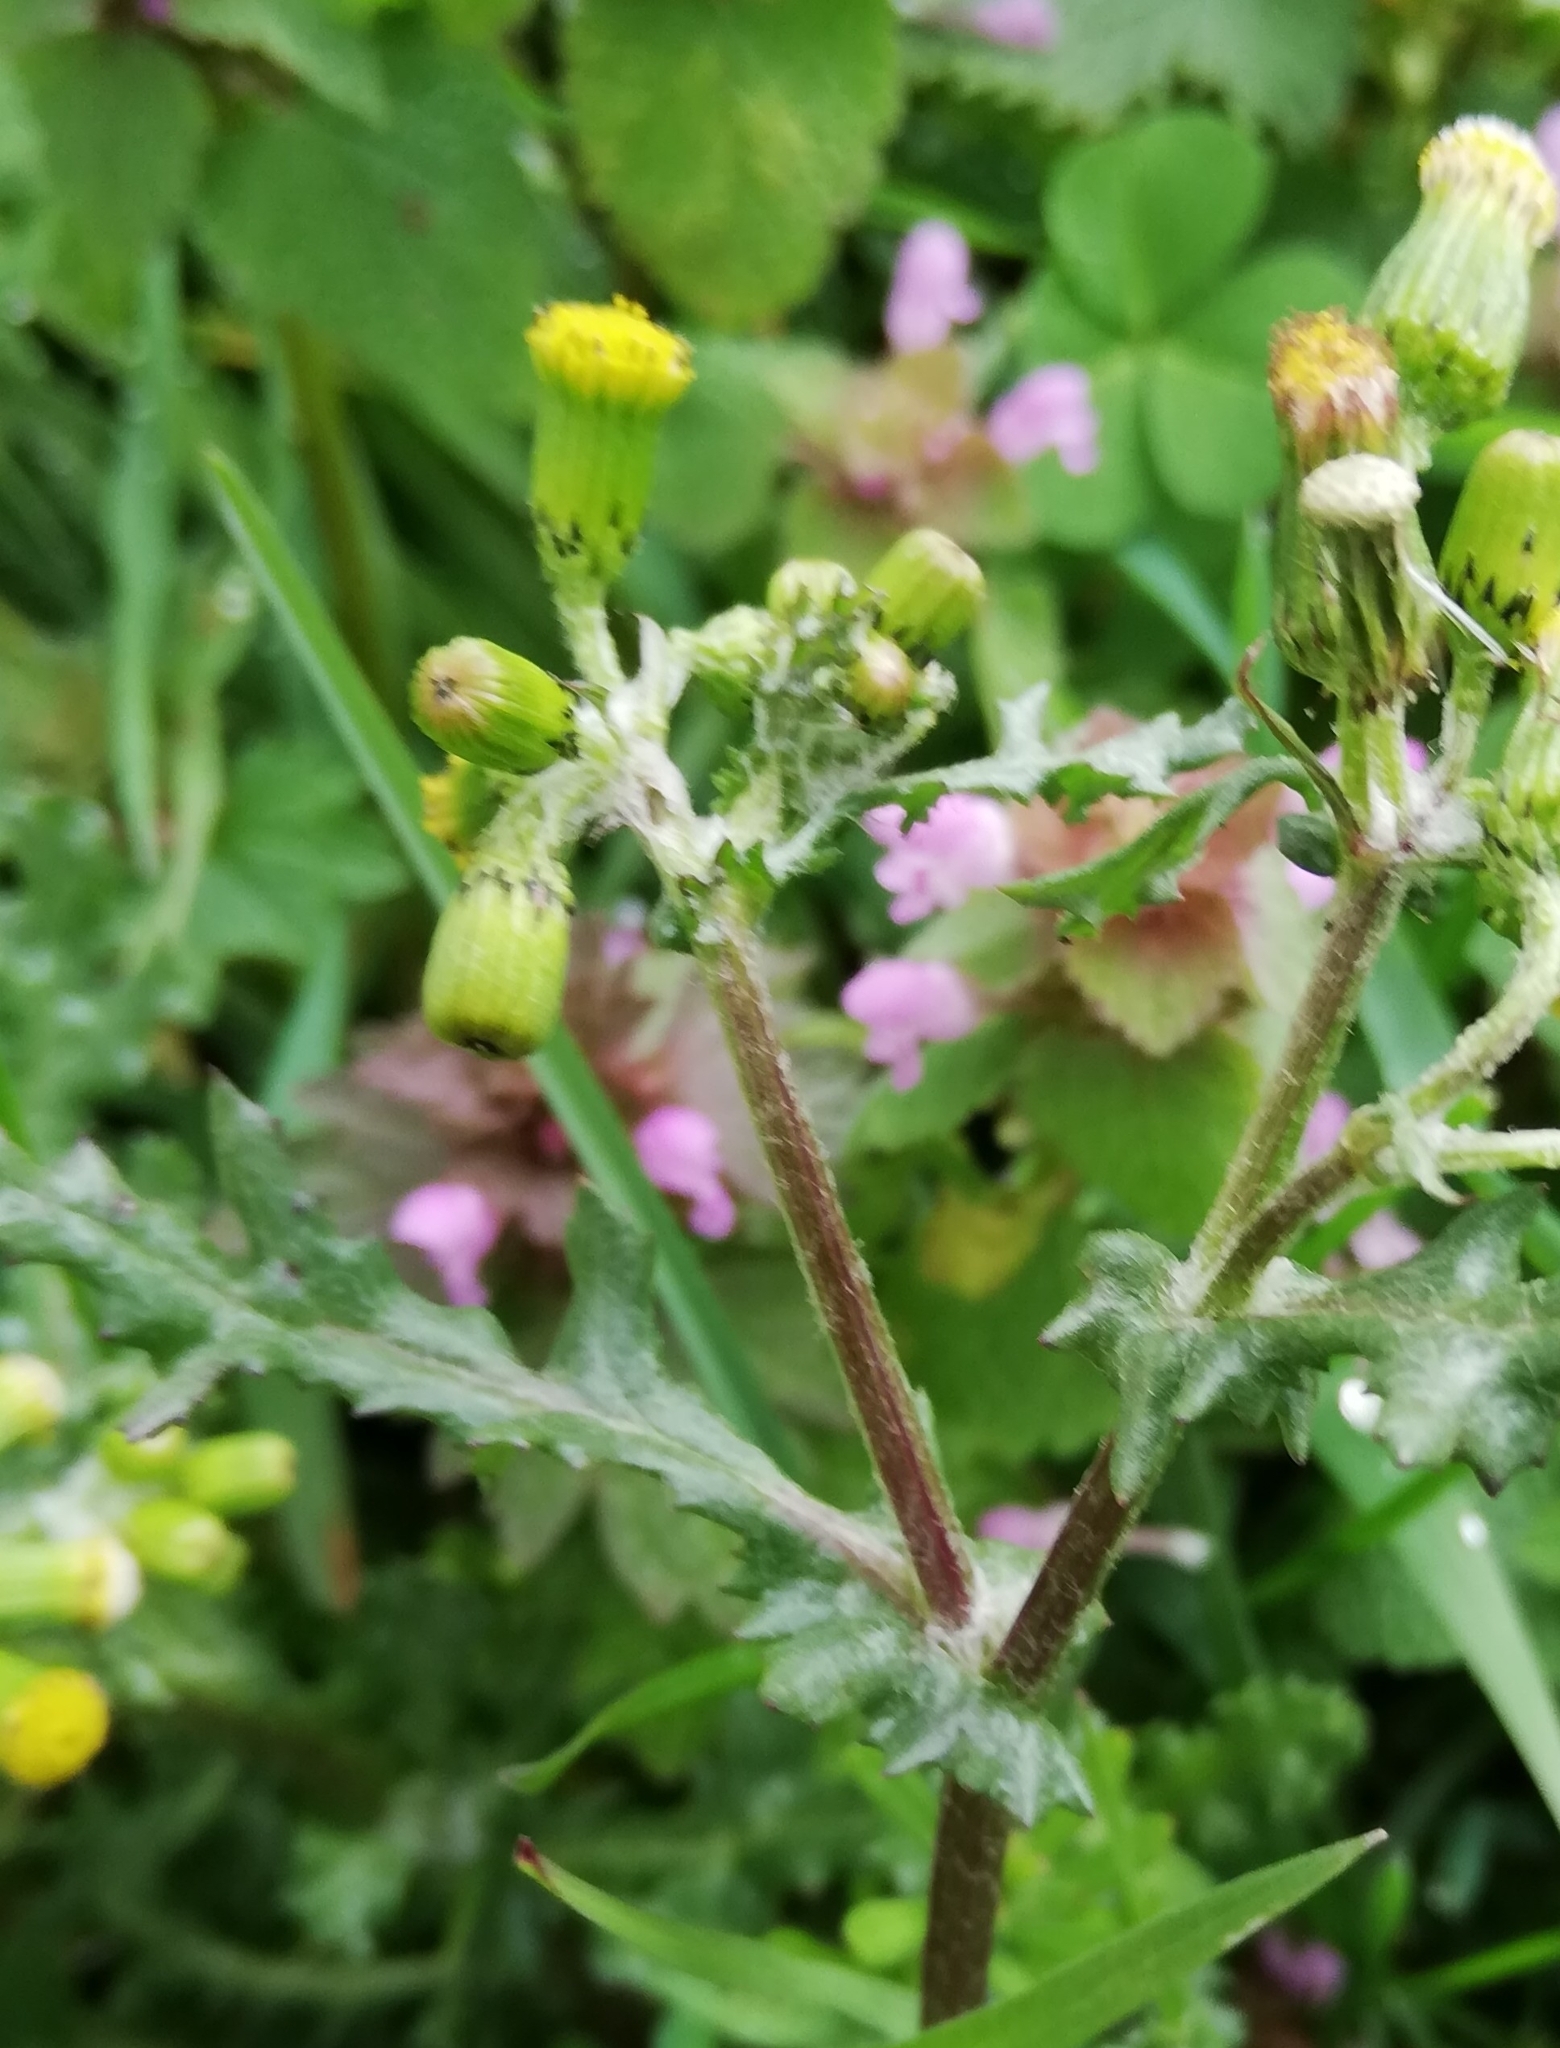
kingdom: Plantae
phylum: Tracheophyta
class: Magnoliopsida
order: Asterales
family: Asteraceae
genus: Senecio
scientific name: Senecio vulgaris
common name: Old-man-in-the-spring
